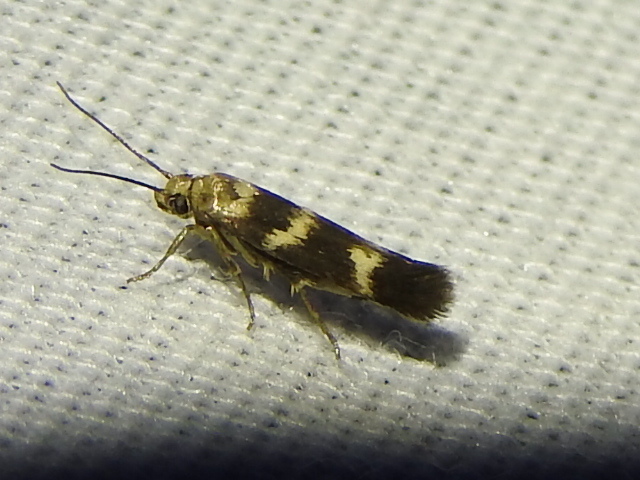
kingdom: Animalia
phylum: Arthropoda
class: Insecta
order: Lepidoptera
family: Scythrididae
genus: Scythris
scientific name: Scythris trivinctella
